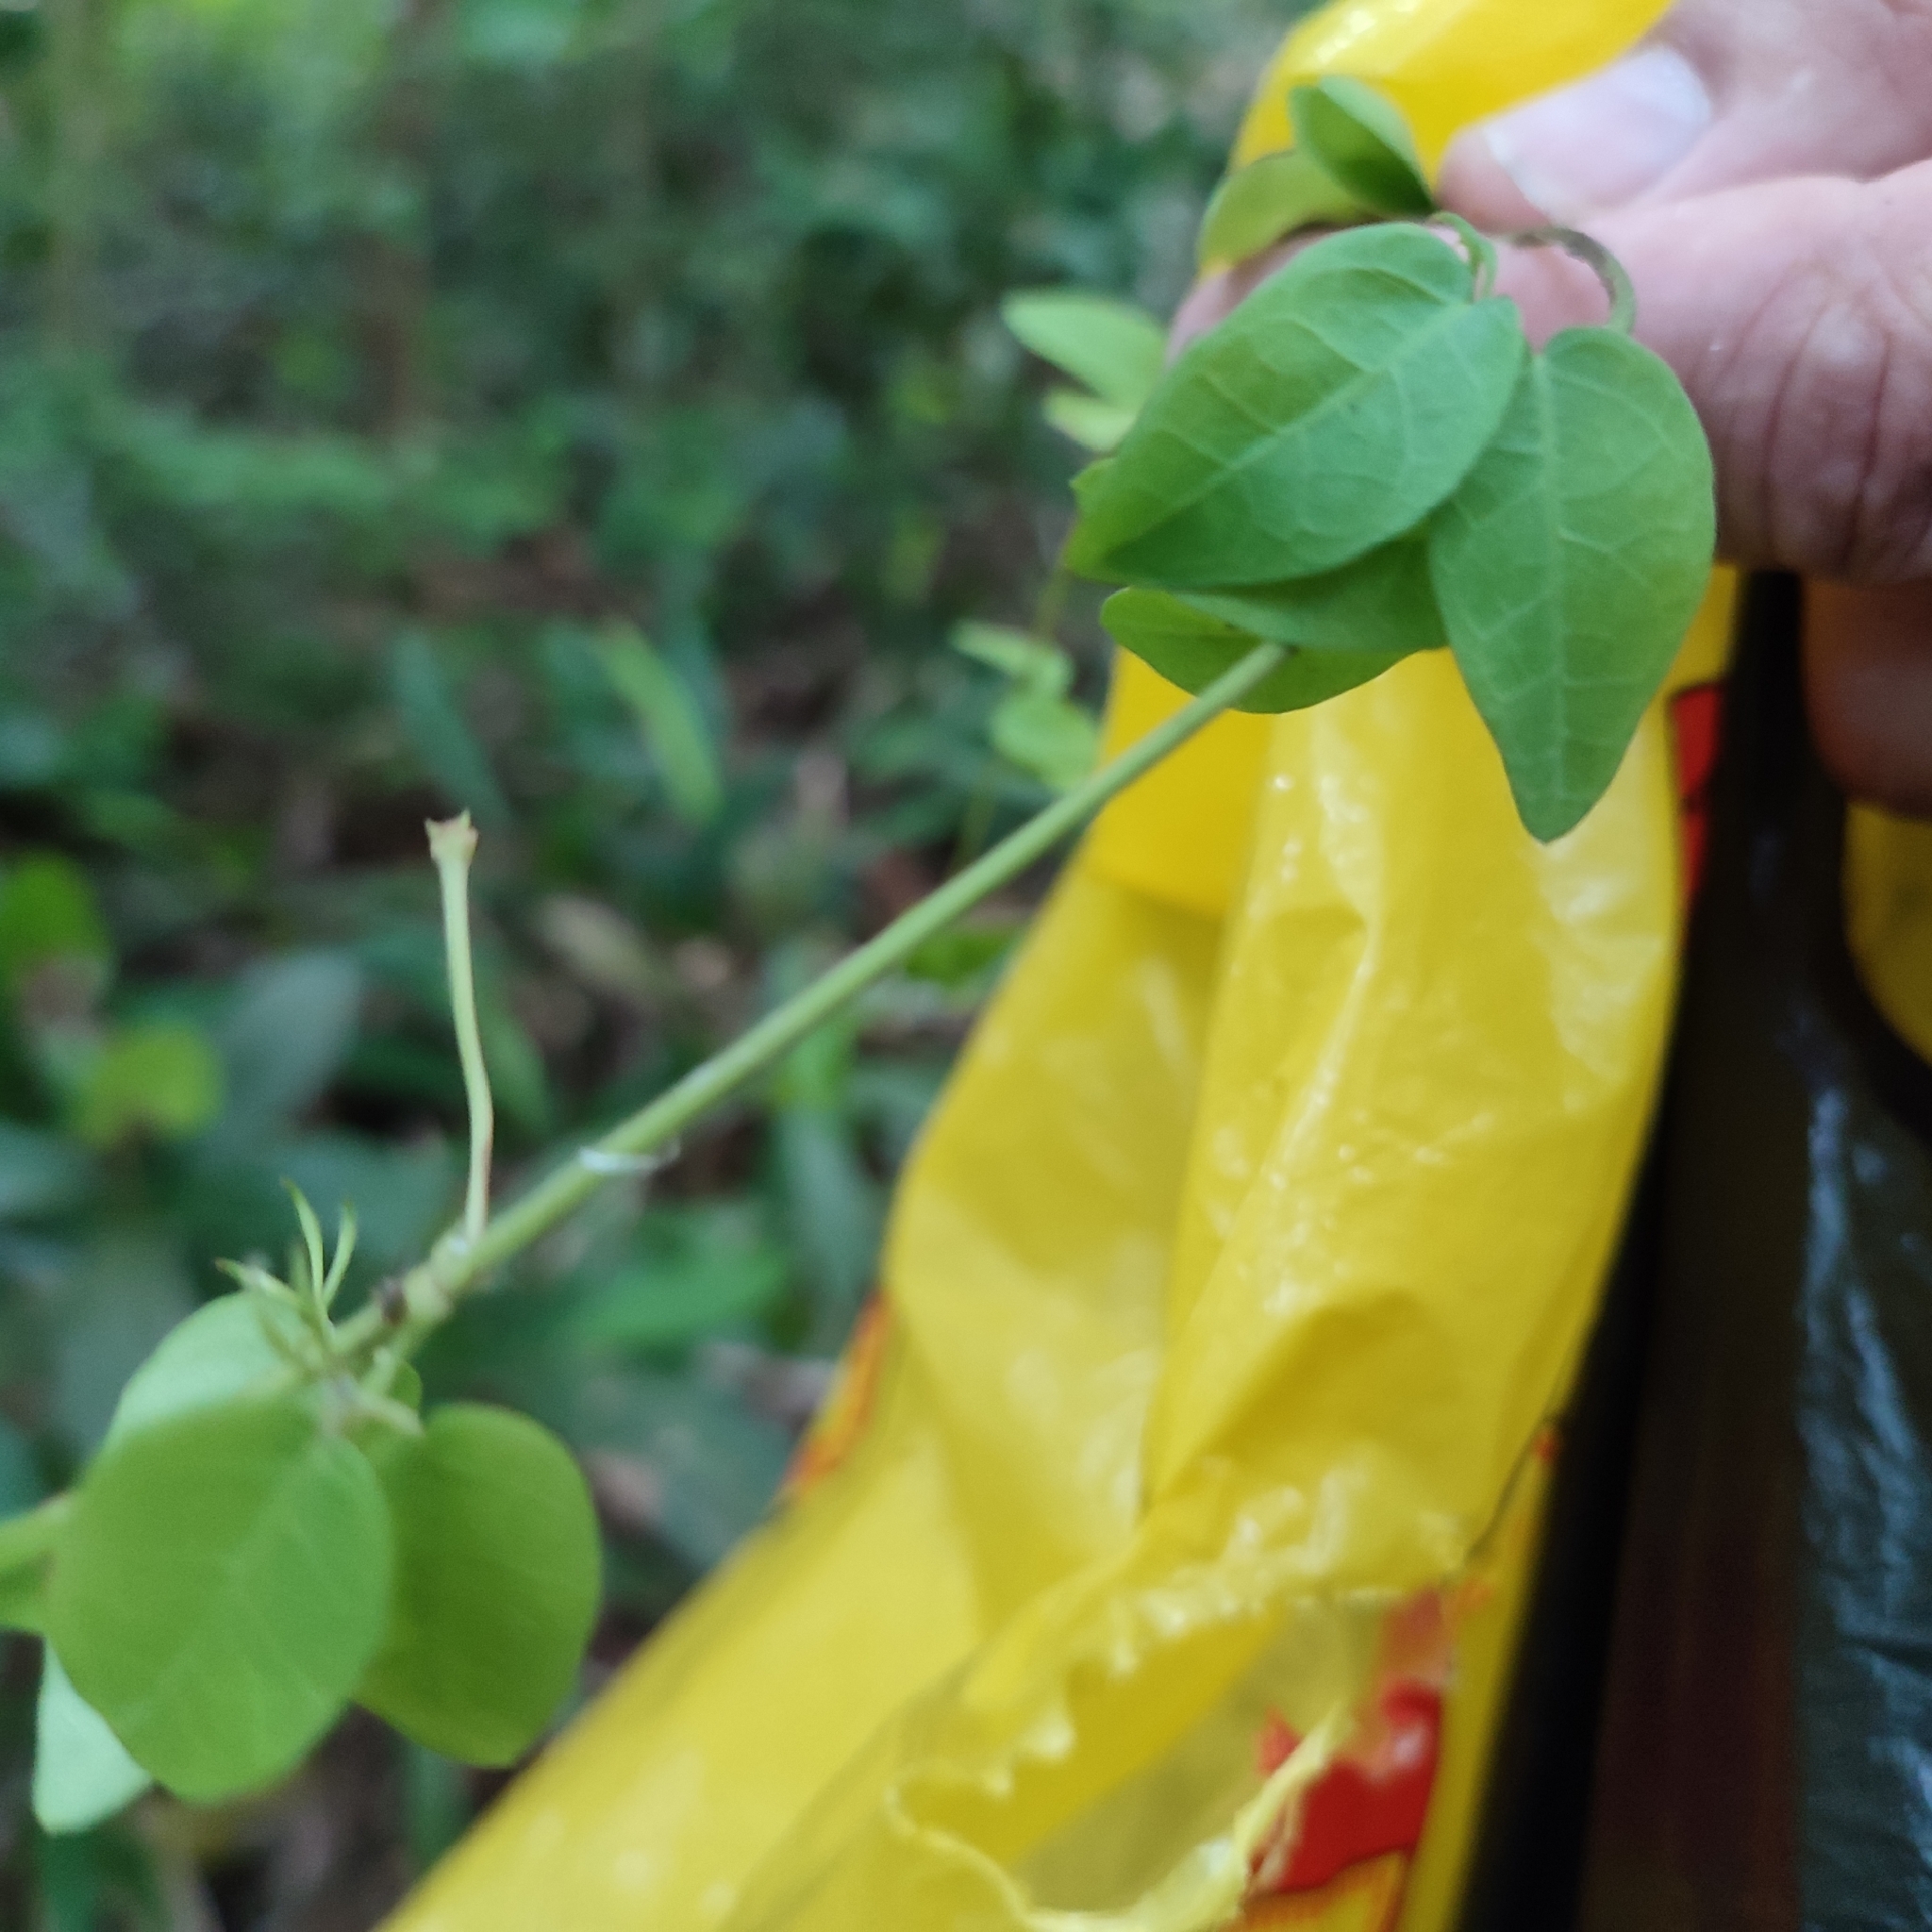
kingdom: Plantae
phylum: Tracheophyta
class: Magnoliopsida
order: Lamiales
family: Bignoniaceae
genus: Dolichandra
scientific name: Dolichandra unguis-cati
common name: Catclaw vine
